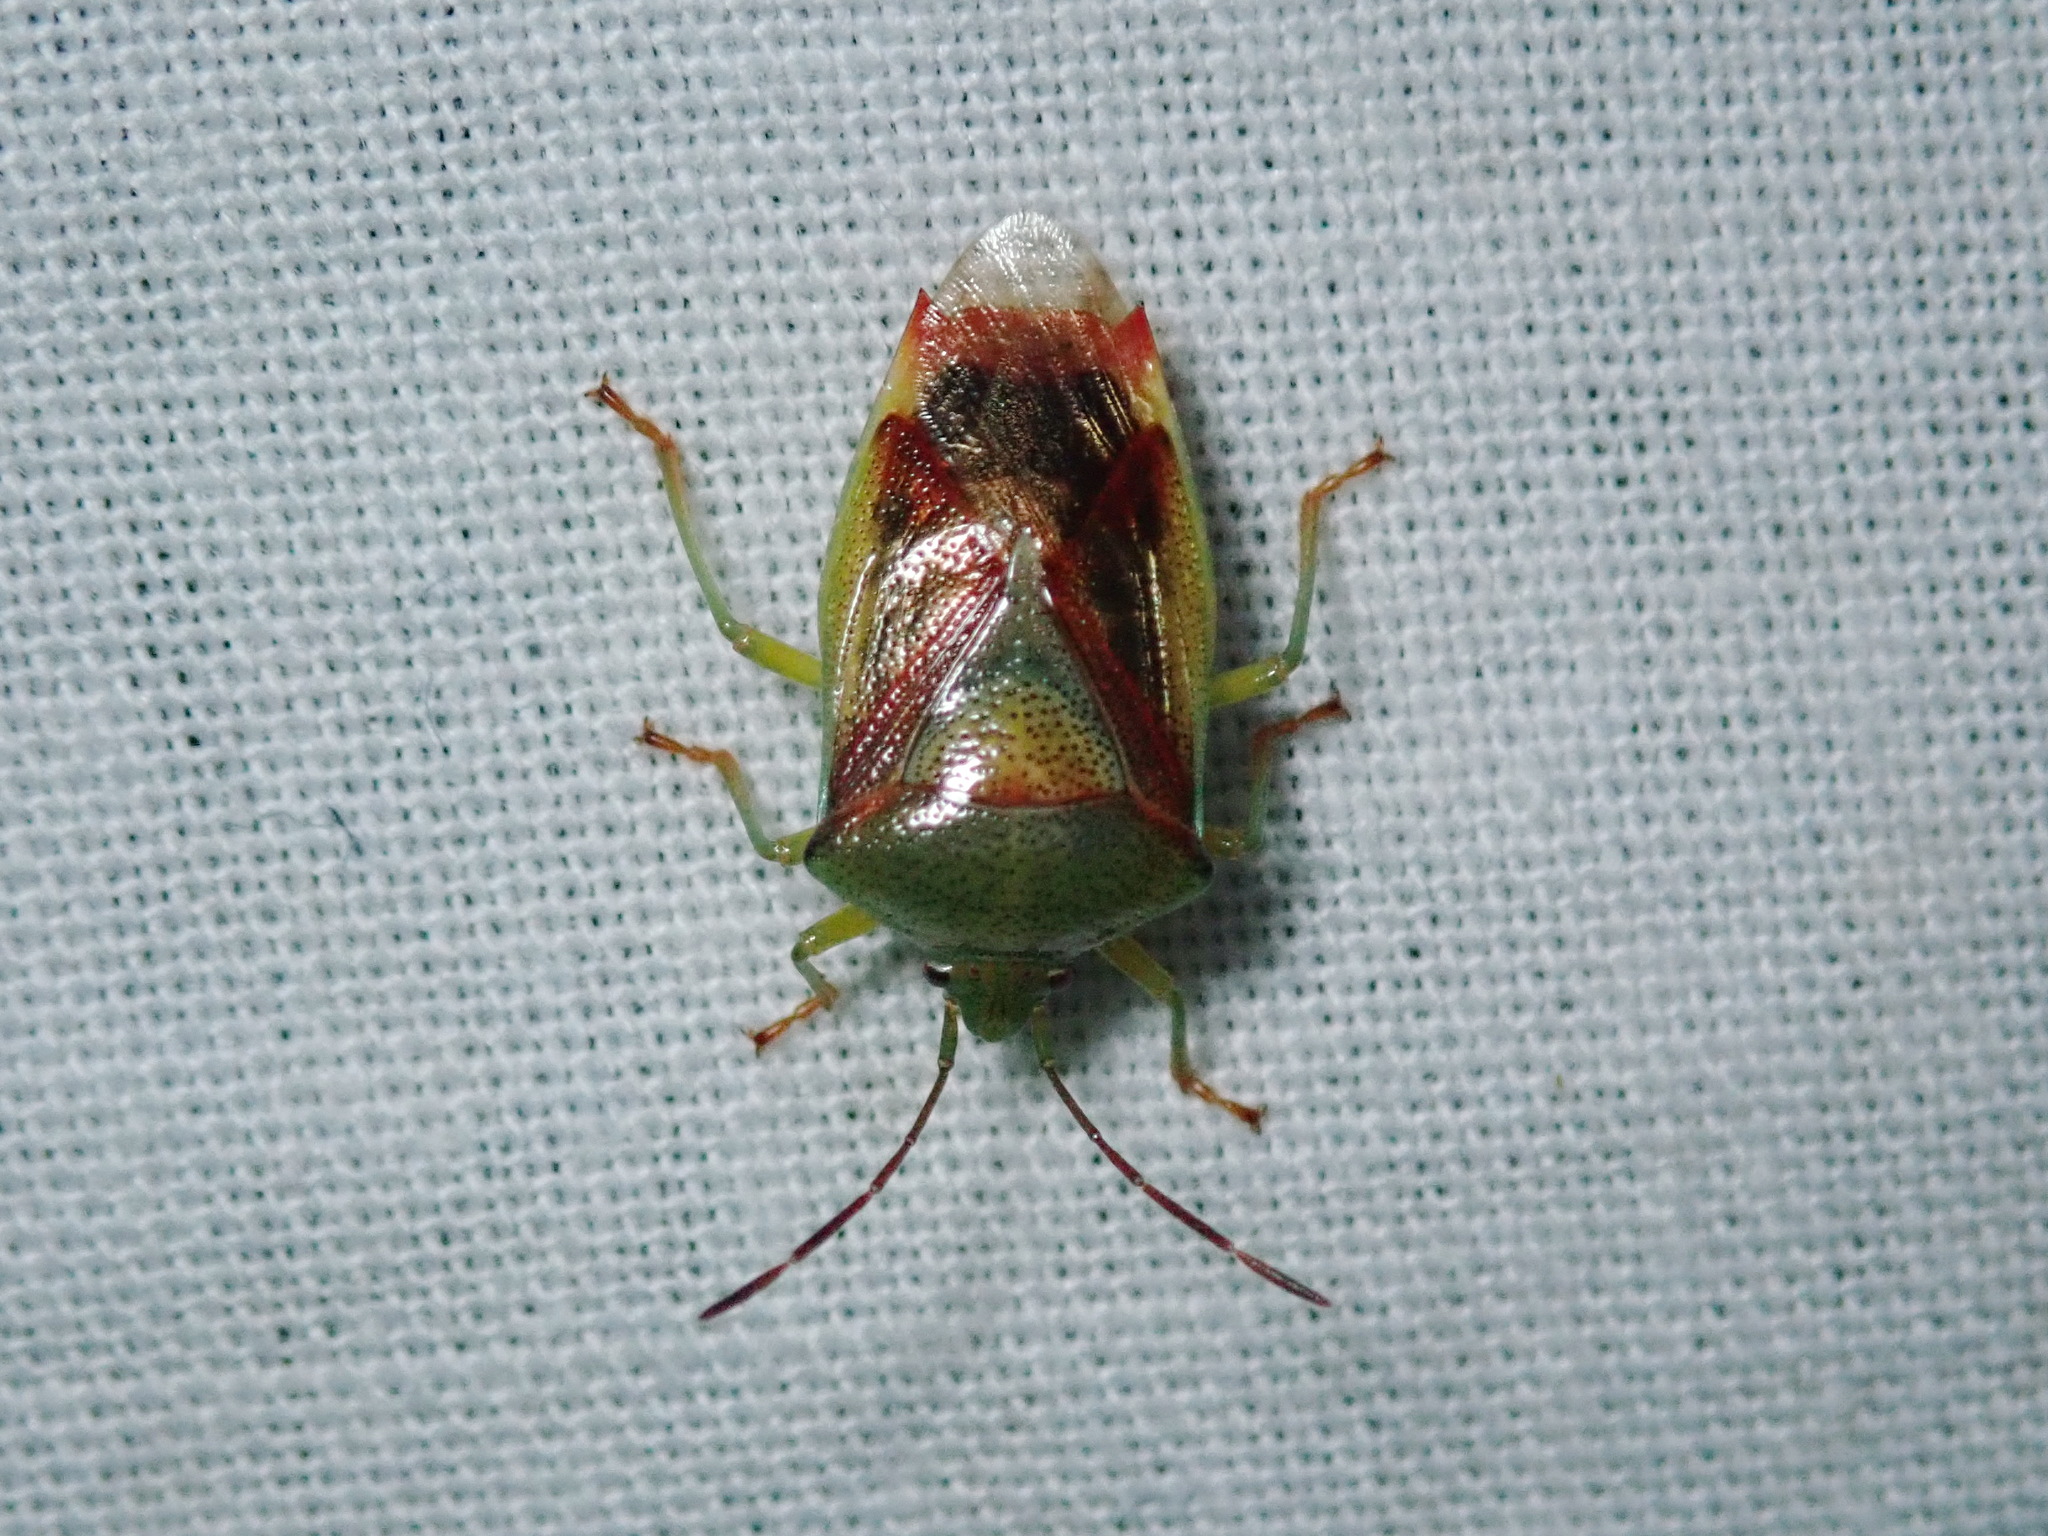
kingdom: Animalia
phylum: Arthropoda
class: Insecta
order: Hemiptera
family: Acanthosomatidae
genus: Elasmostethus
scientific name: Elasmostethus interstinctus
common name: Birch shieldbug
